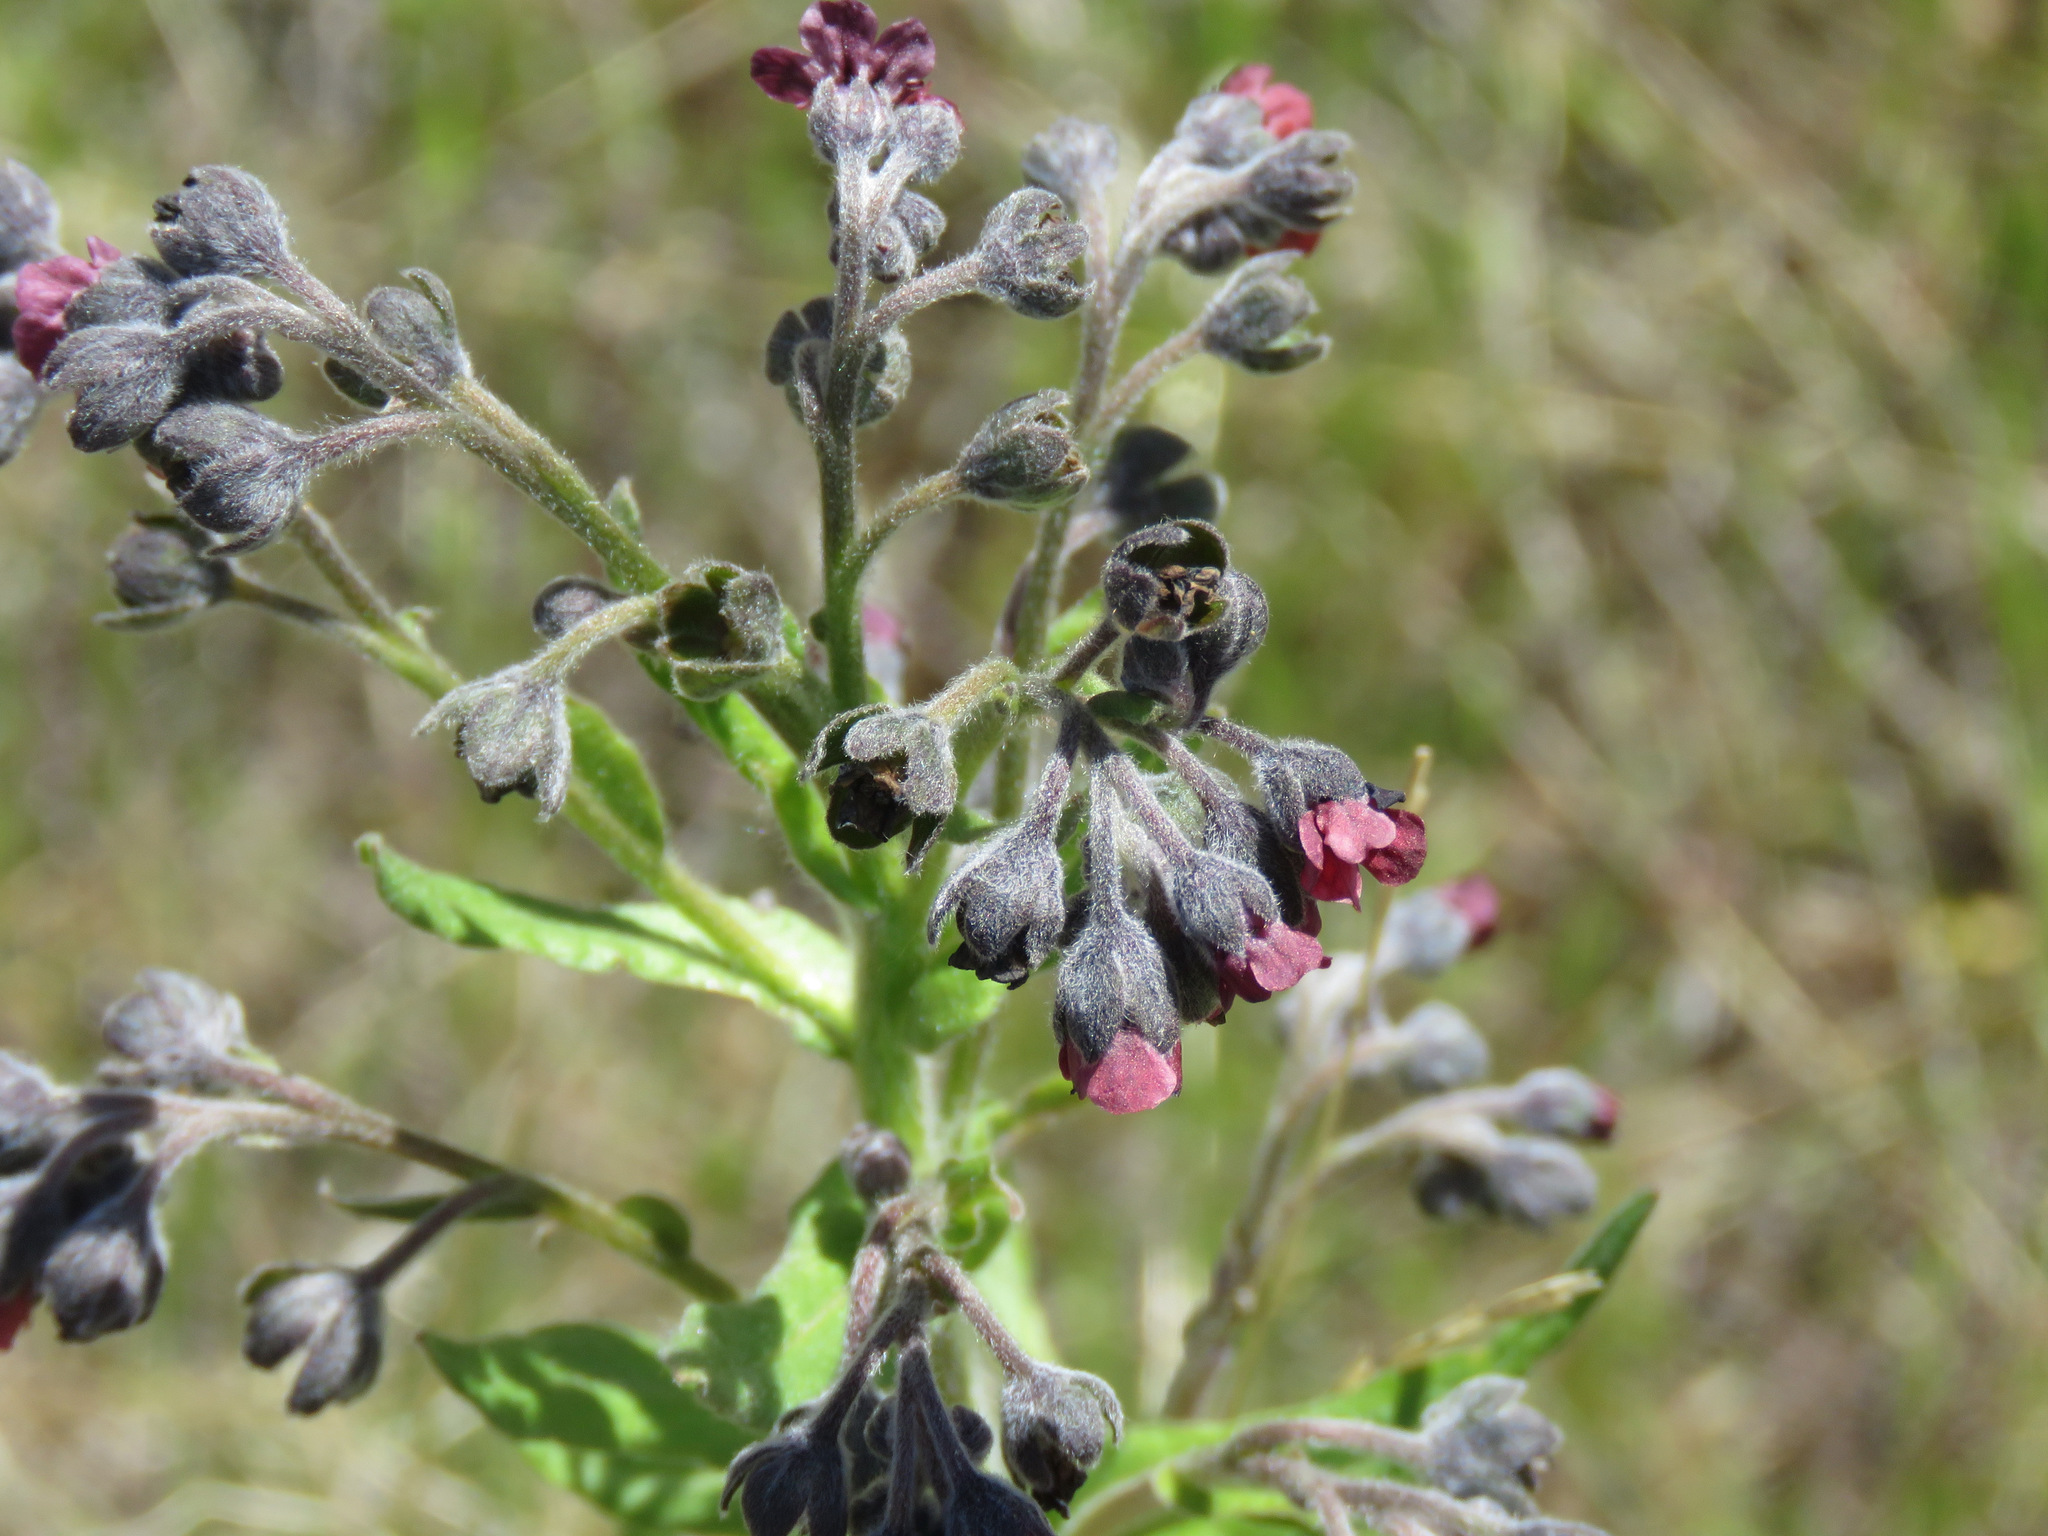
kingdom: Plantae
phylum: Tracheophyta
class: Magnoliopsida
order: Boraginales
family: Boraginaceae
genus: Cynoglossum
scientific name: Cynoglossum officinale
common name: Hound's-tongue
